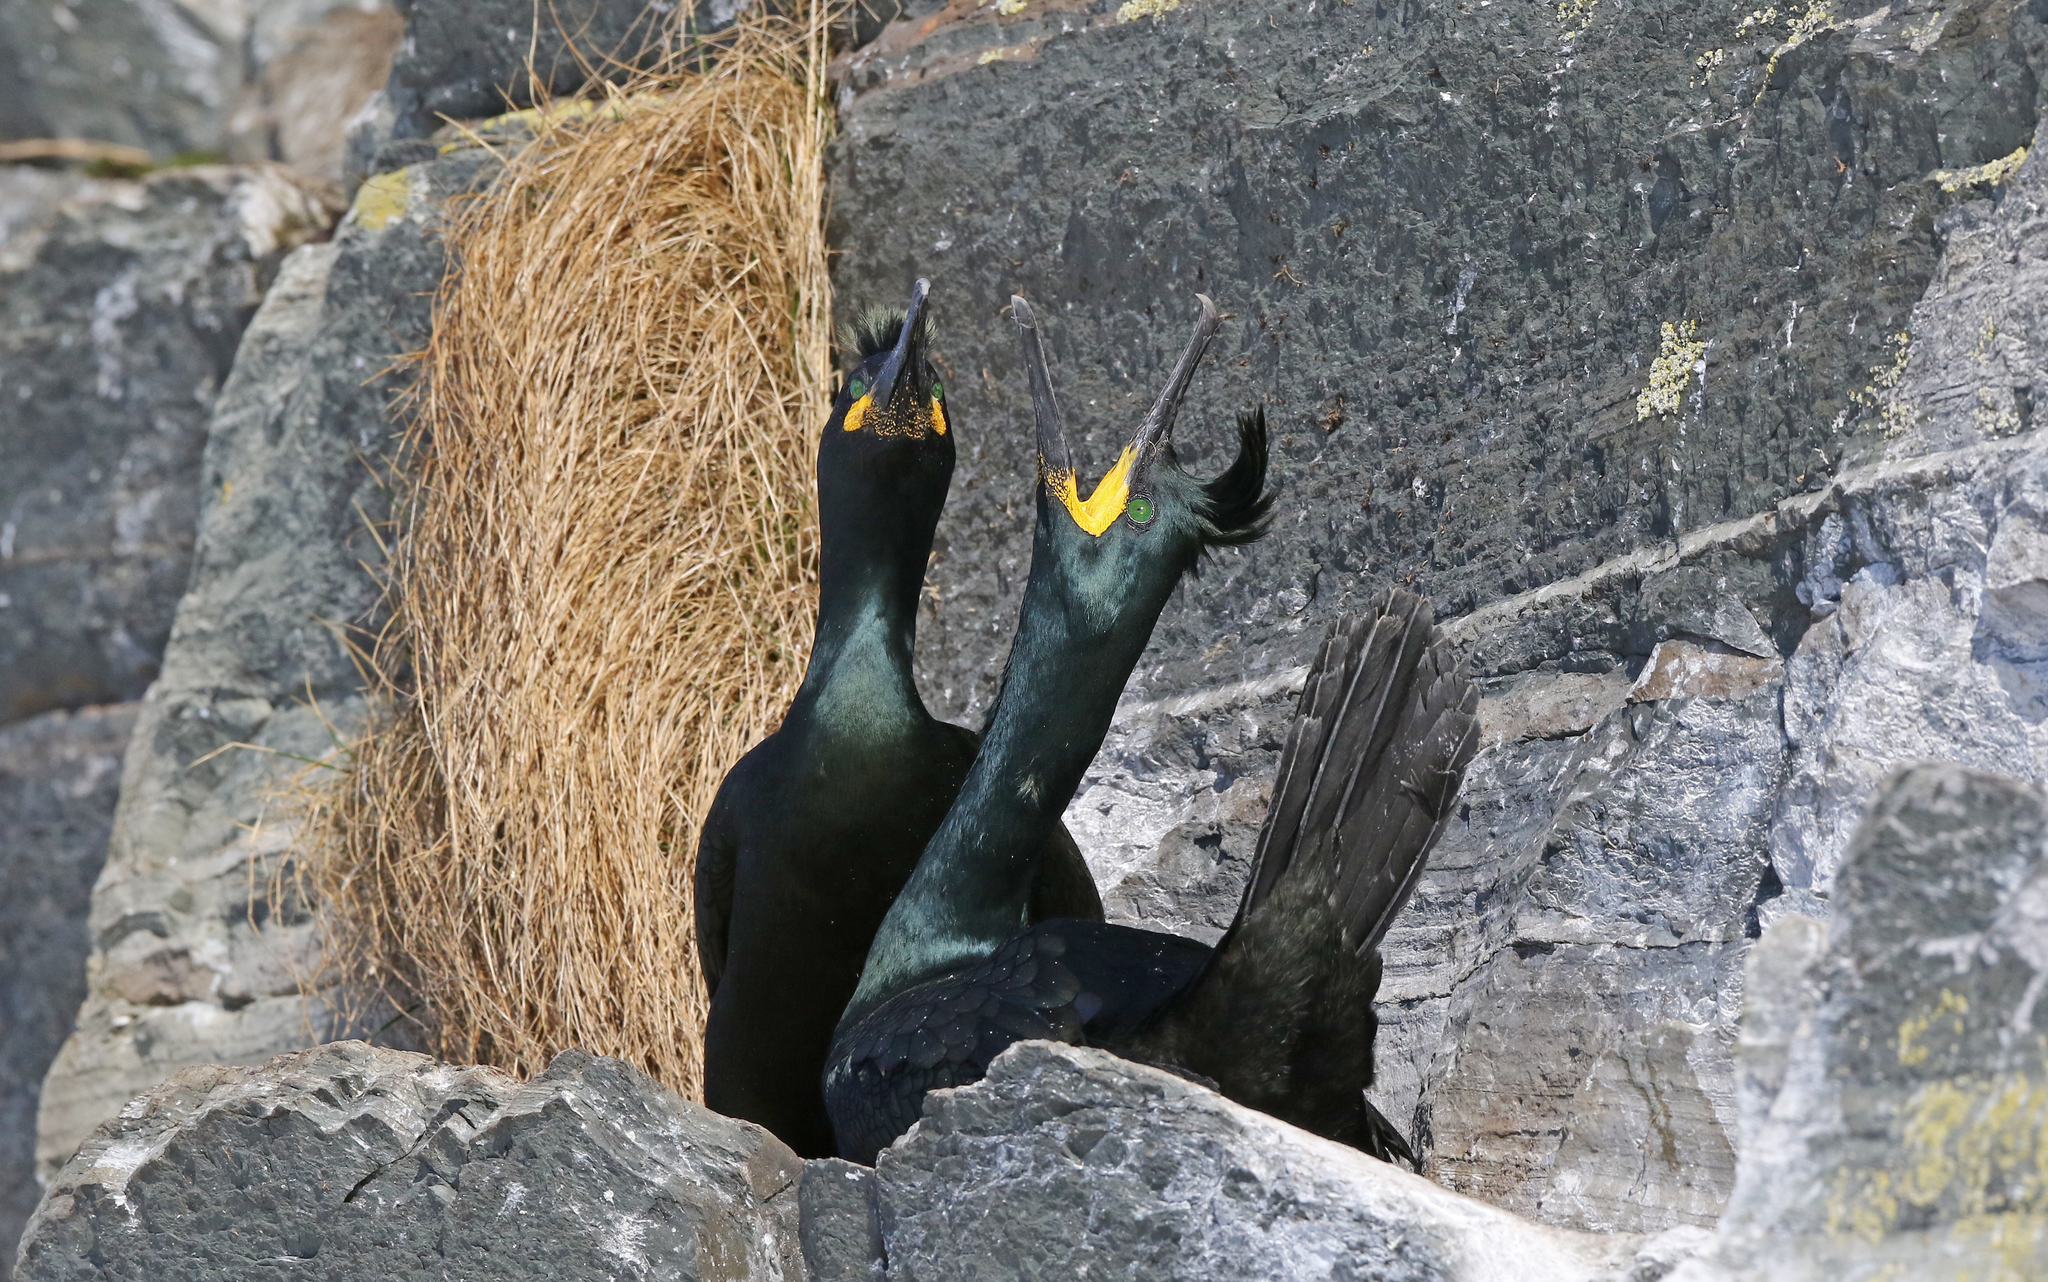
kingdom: Animalia
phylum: Chordata
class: Aves
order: Suliformes
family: Phalacrocoracidae
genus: Phalacrocorax
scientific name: Phalacrocorax aristotelis
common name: European shag
